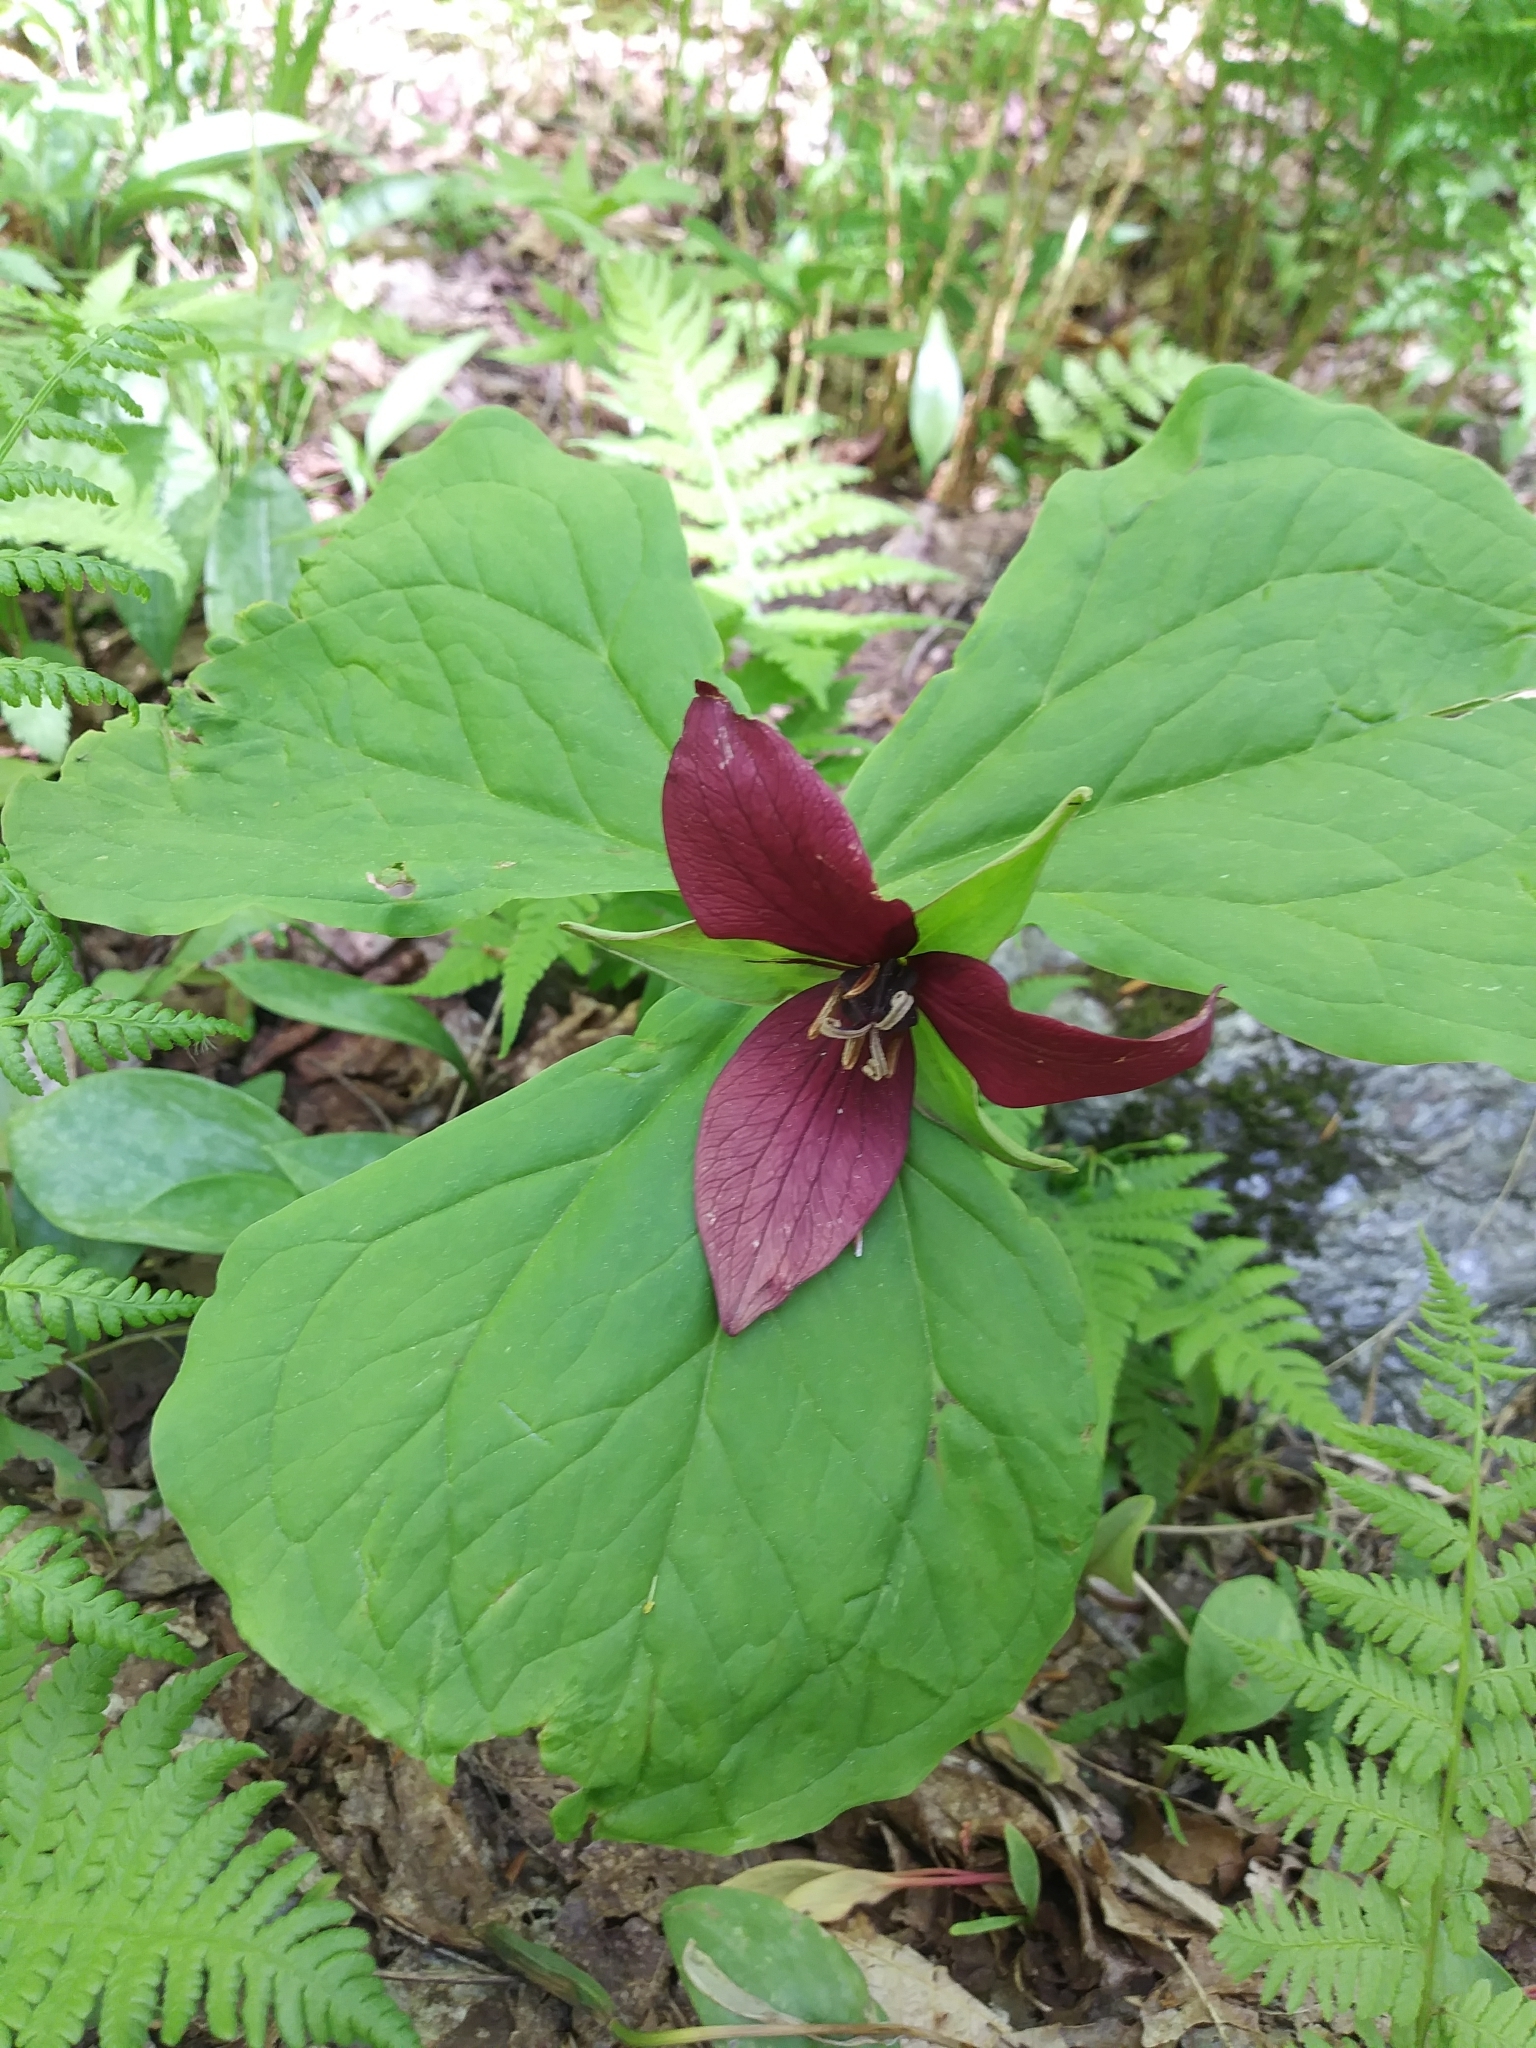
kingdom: Plantae
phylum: Tracheophyta
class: Liliopsida
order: Liliales
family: Melanthiaceae
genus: Trillium
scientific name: Trillium erectum
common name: Purple trillium
